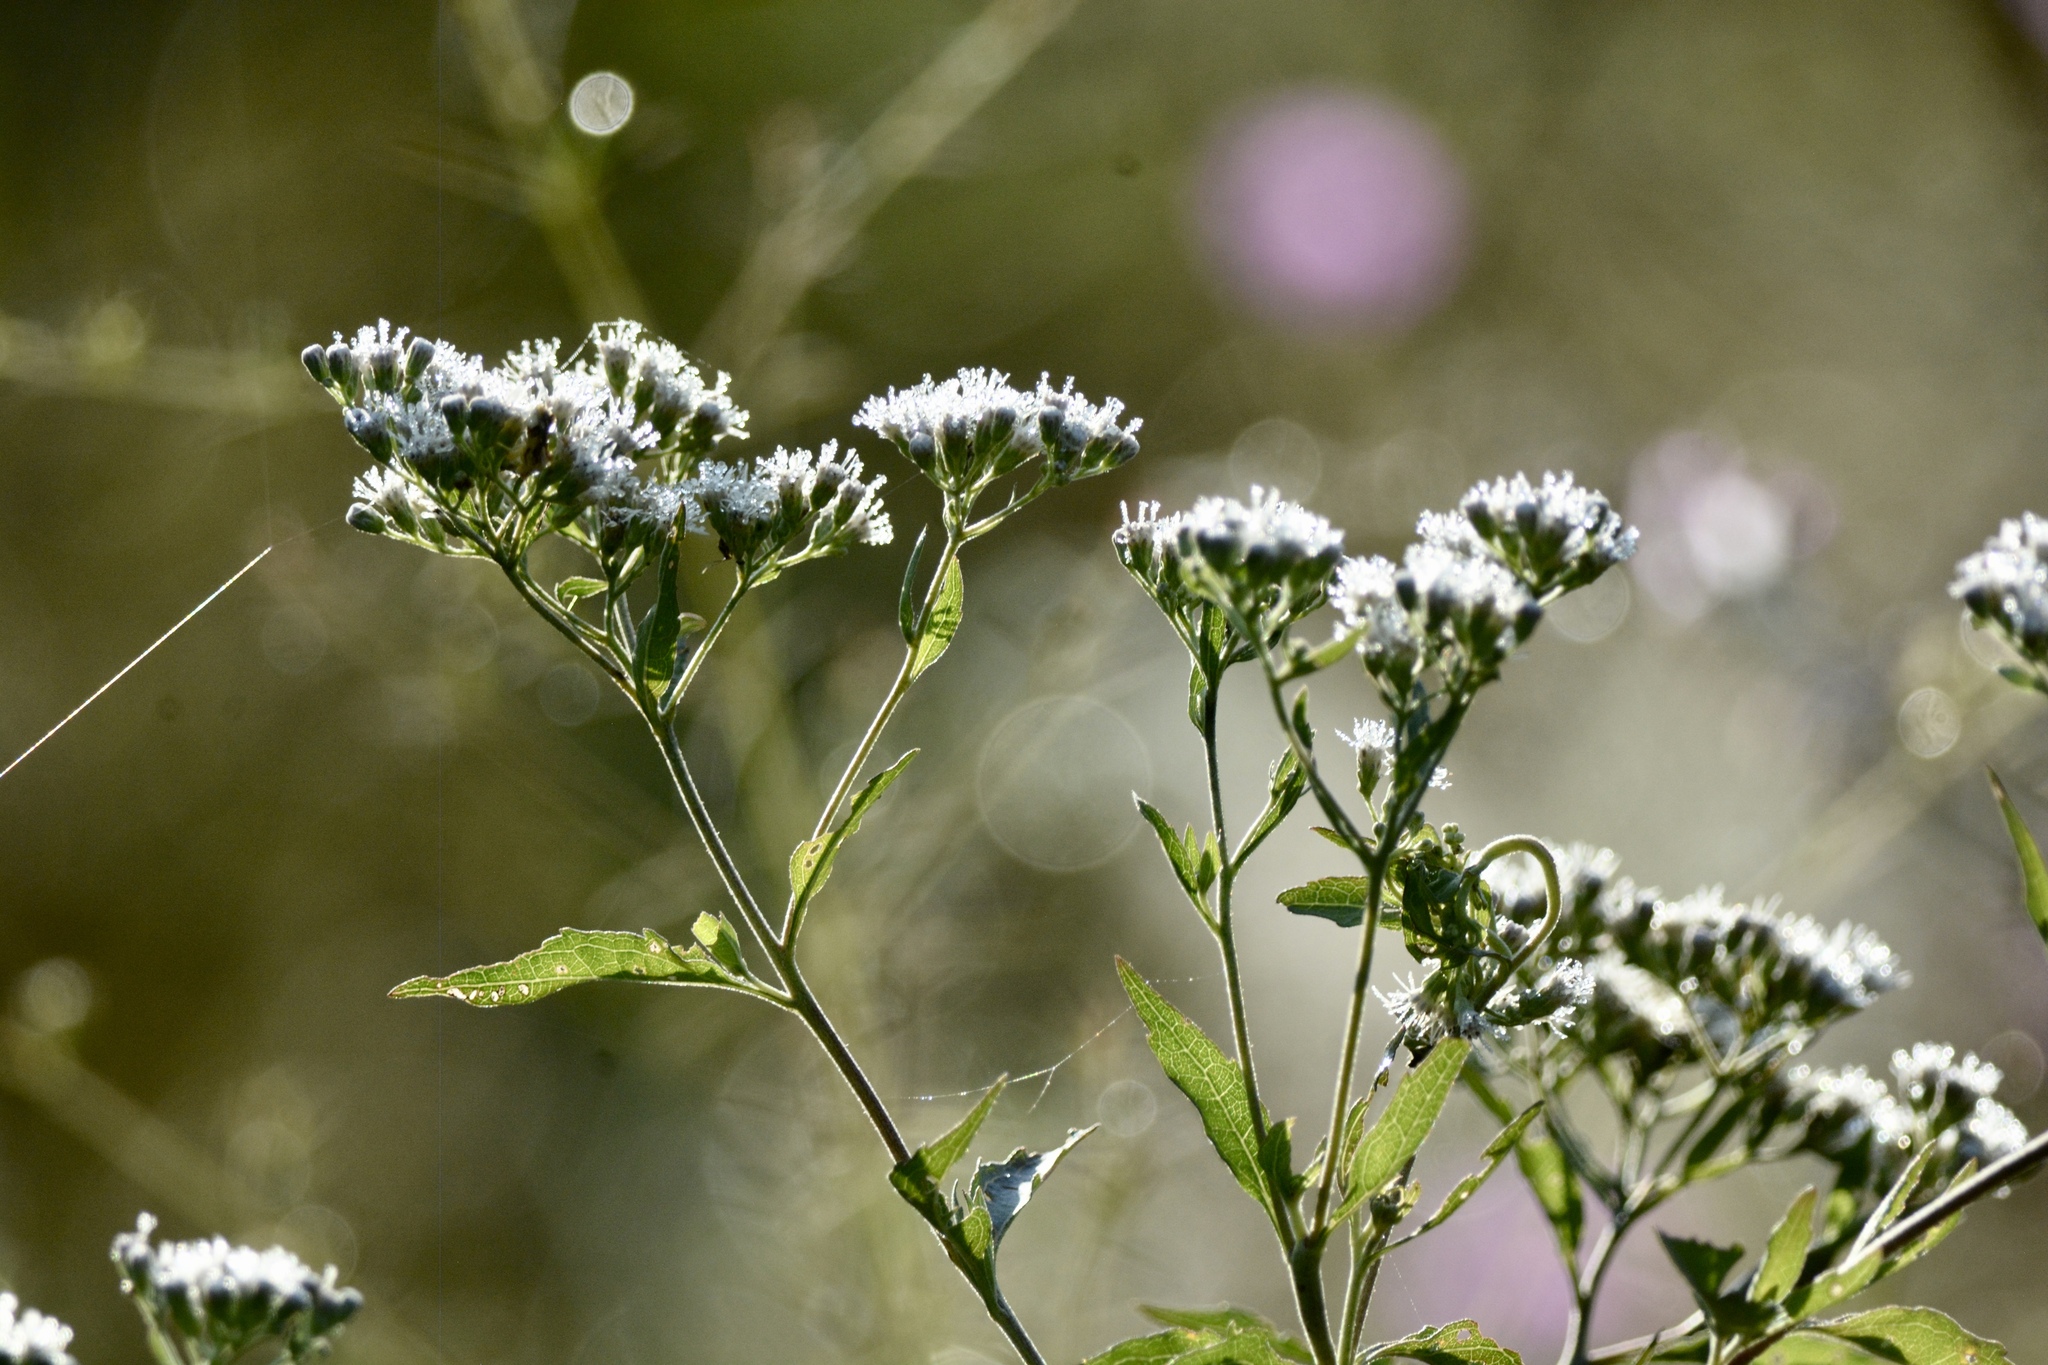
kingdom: Plantae
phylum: Tracheophyta
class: Magnoliopsida
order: Asterales
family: Asteraceae
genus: Eupatorium
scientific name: Eupatorium serotinum
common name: Late boneset
